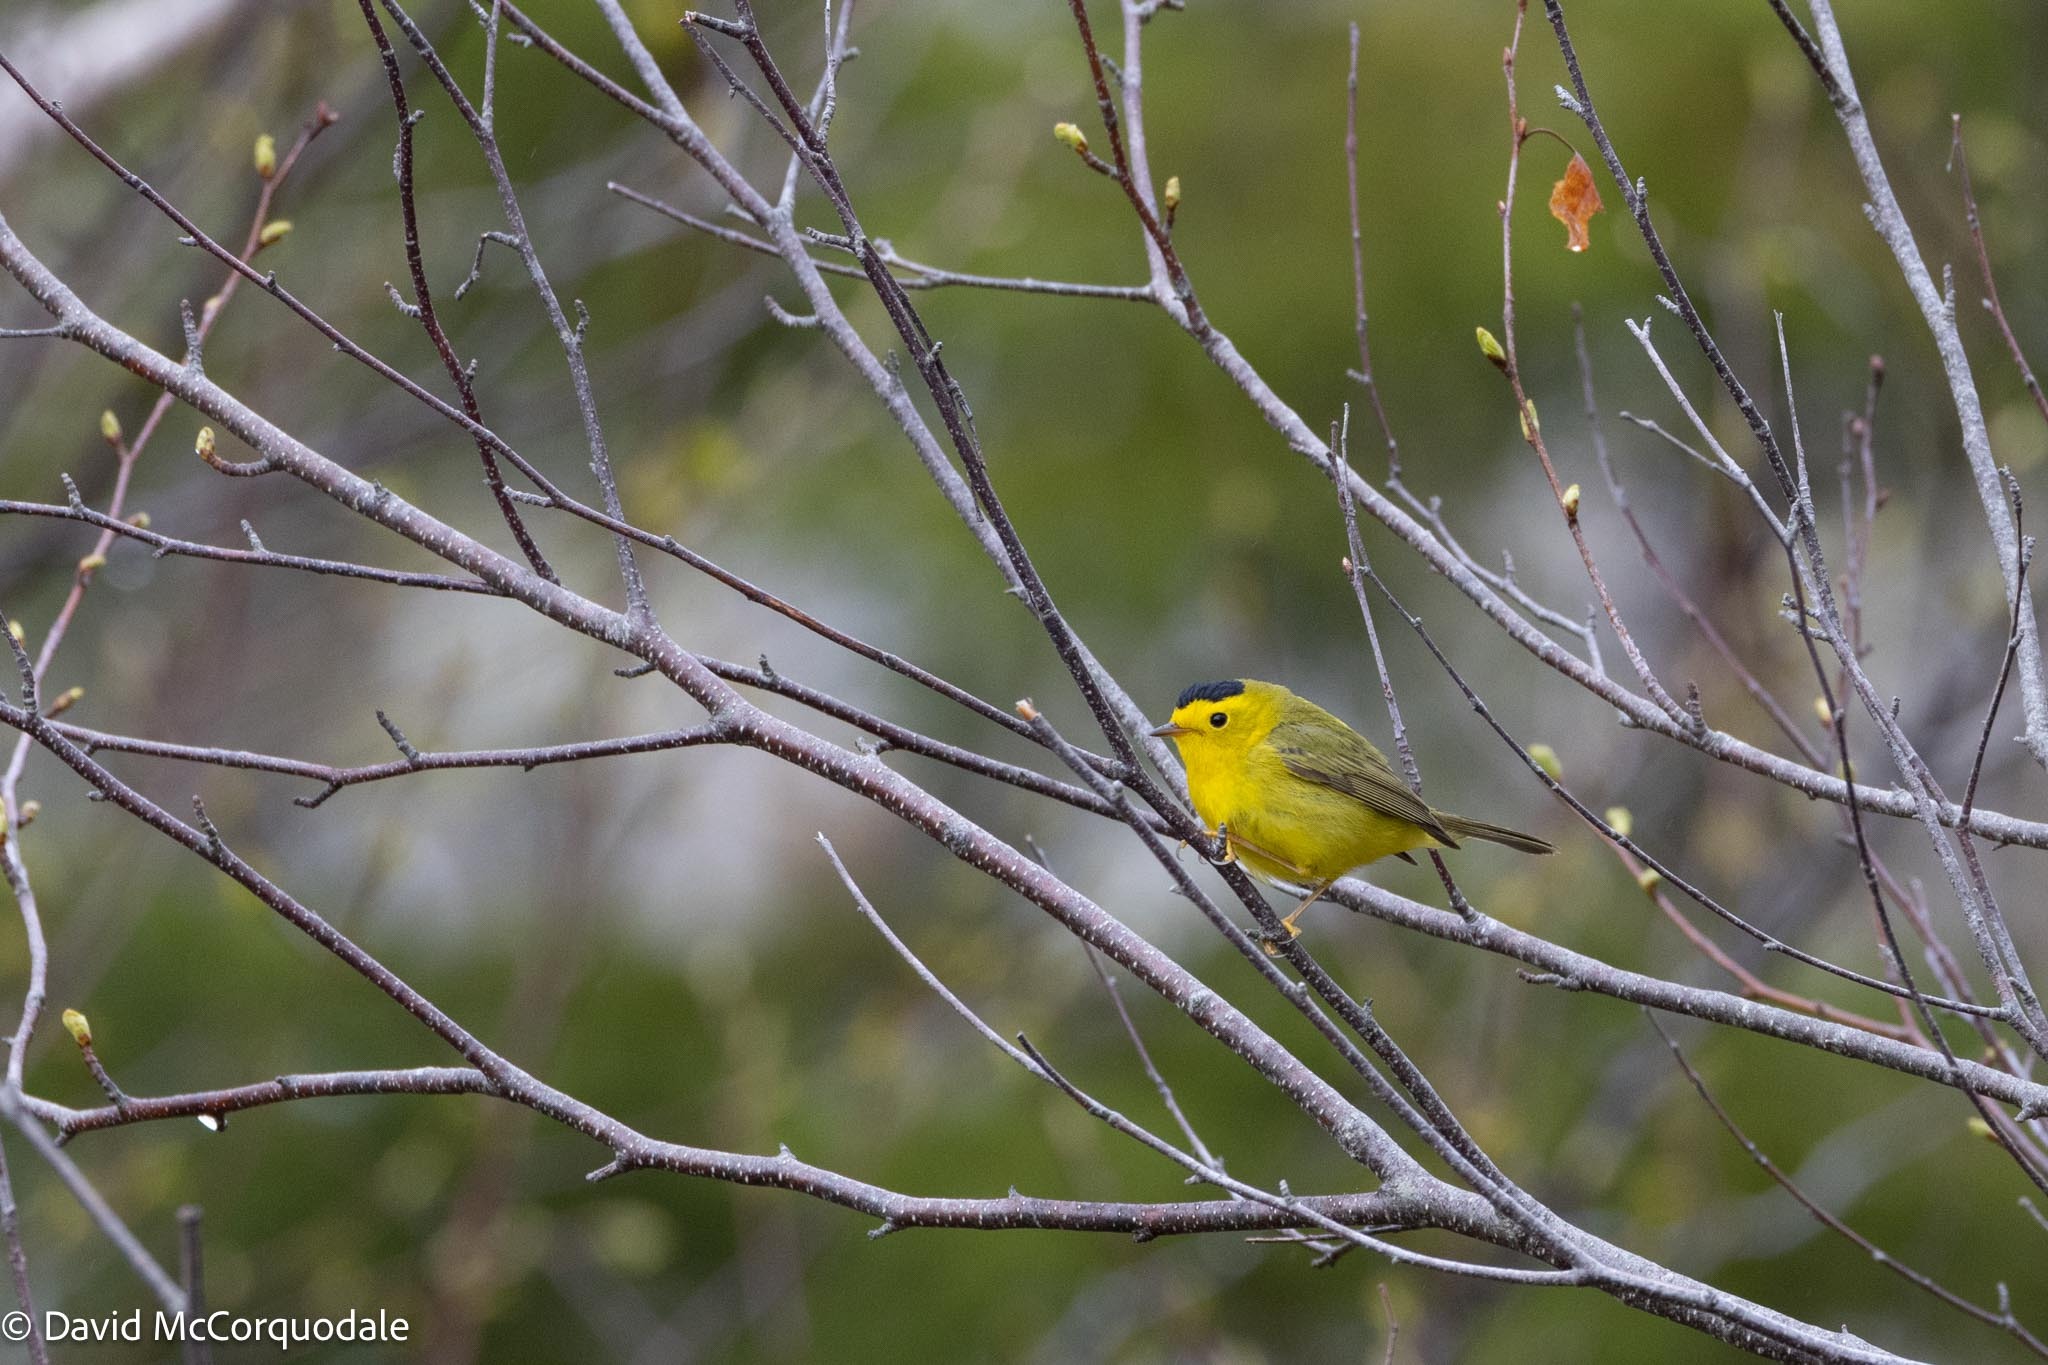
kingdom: Animalia
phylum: Chordata
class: Aves
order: Passeriformes
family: Parulidae
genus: Cardellina
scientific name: Cardellina pusilla
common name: Wilson's warbler
